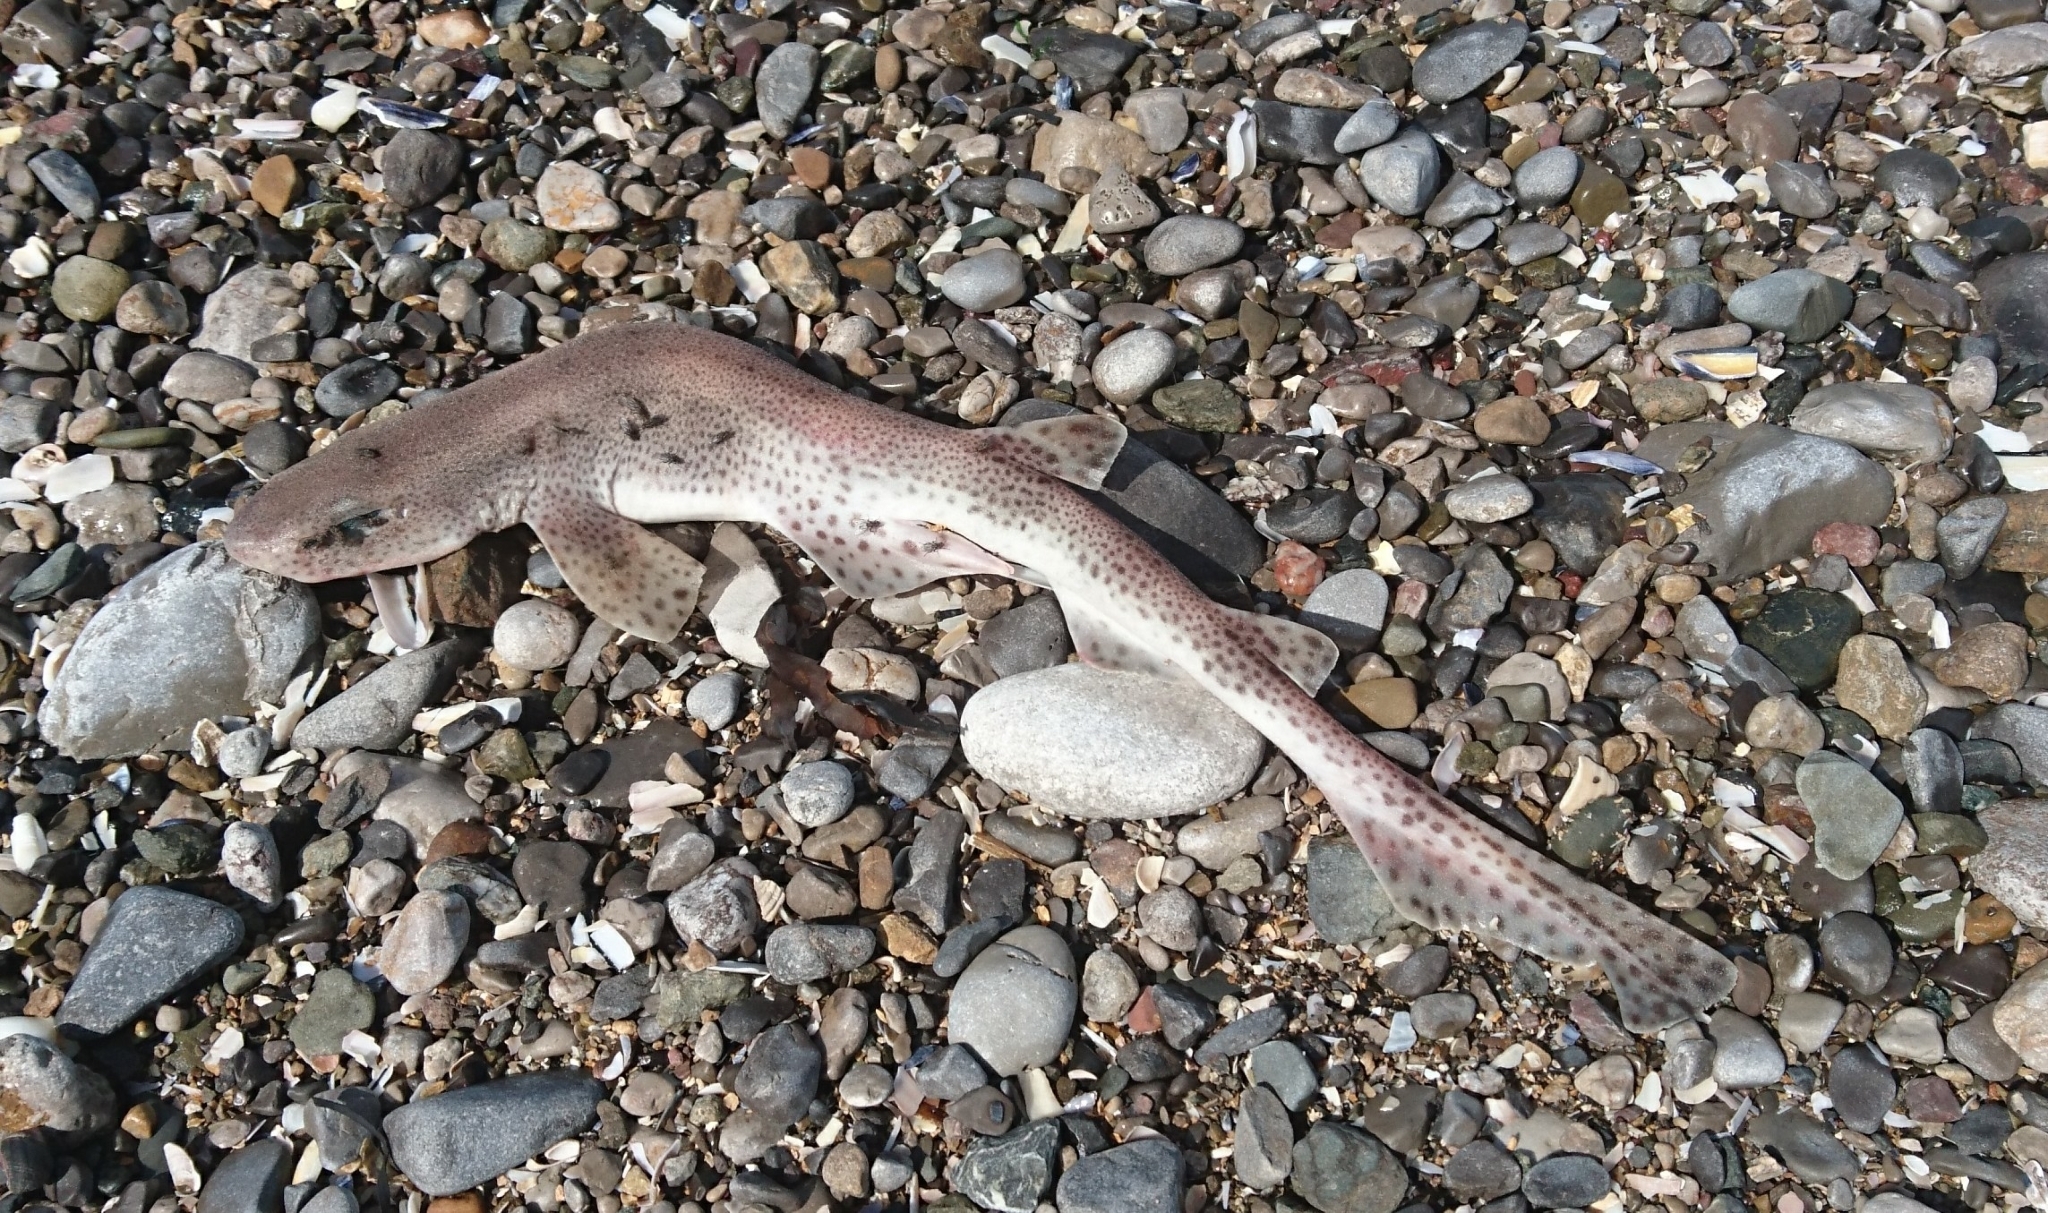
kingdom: Animalia
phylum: Chordata
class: Elasmobranchii
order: Carcharhiniformes
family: Scyliorhinidae
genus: Scyliorhinus
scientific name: Scyliorhinus canicula
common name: Lesser spotted dogfish
